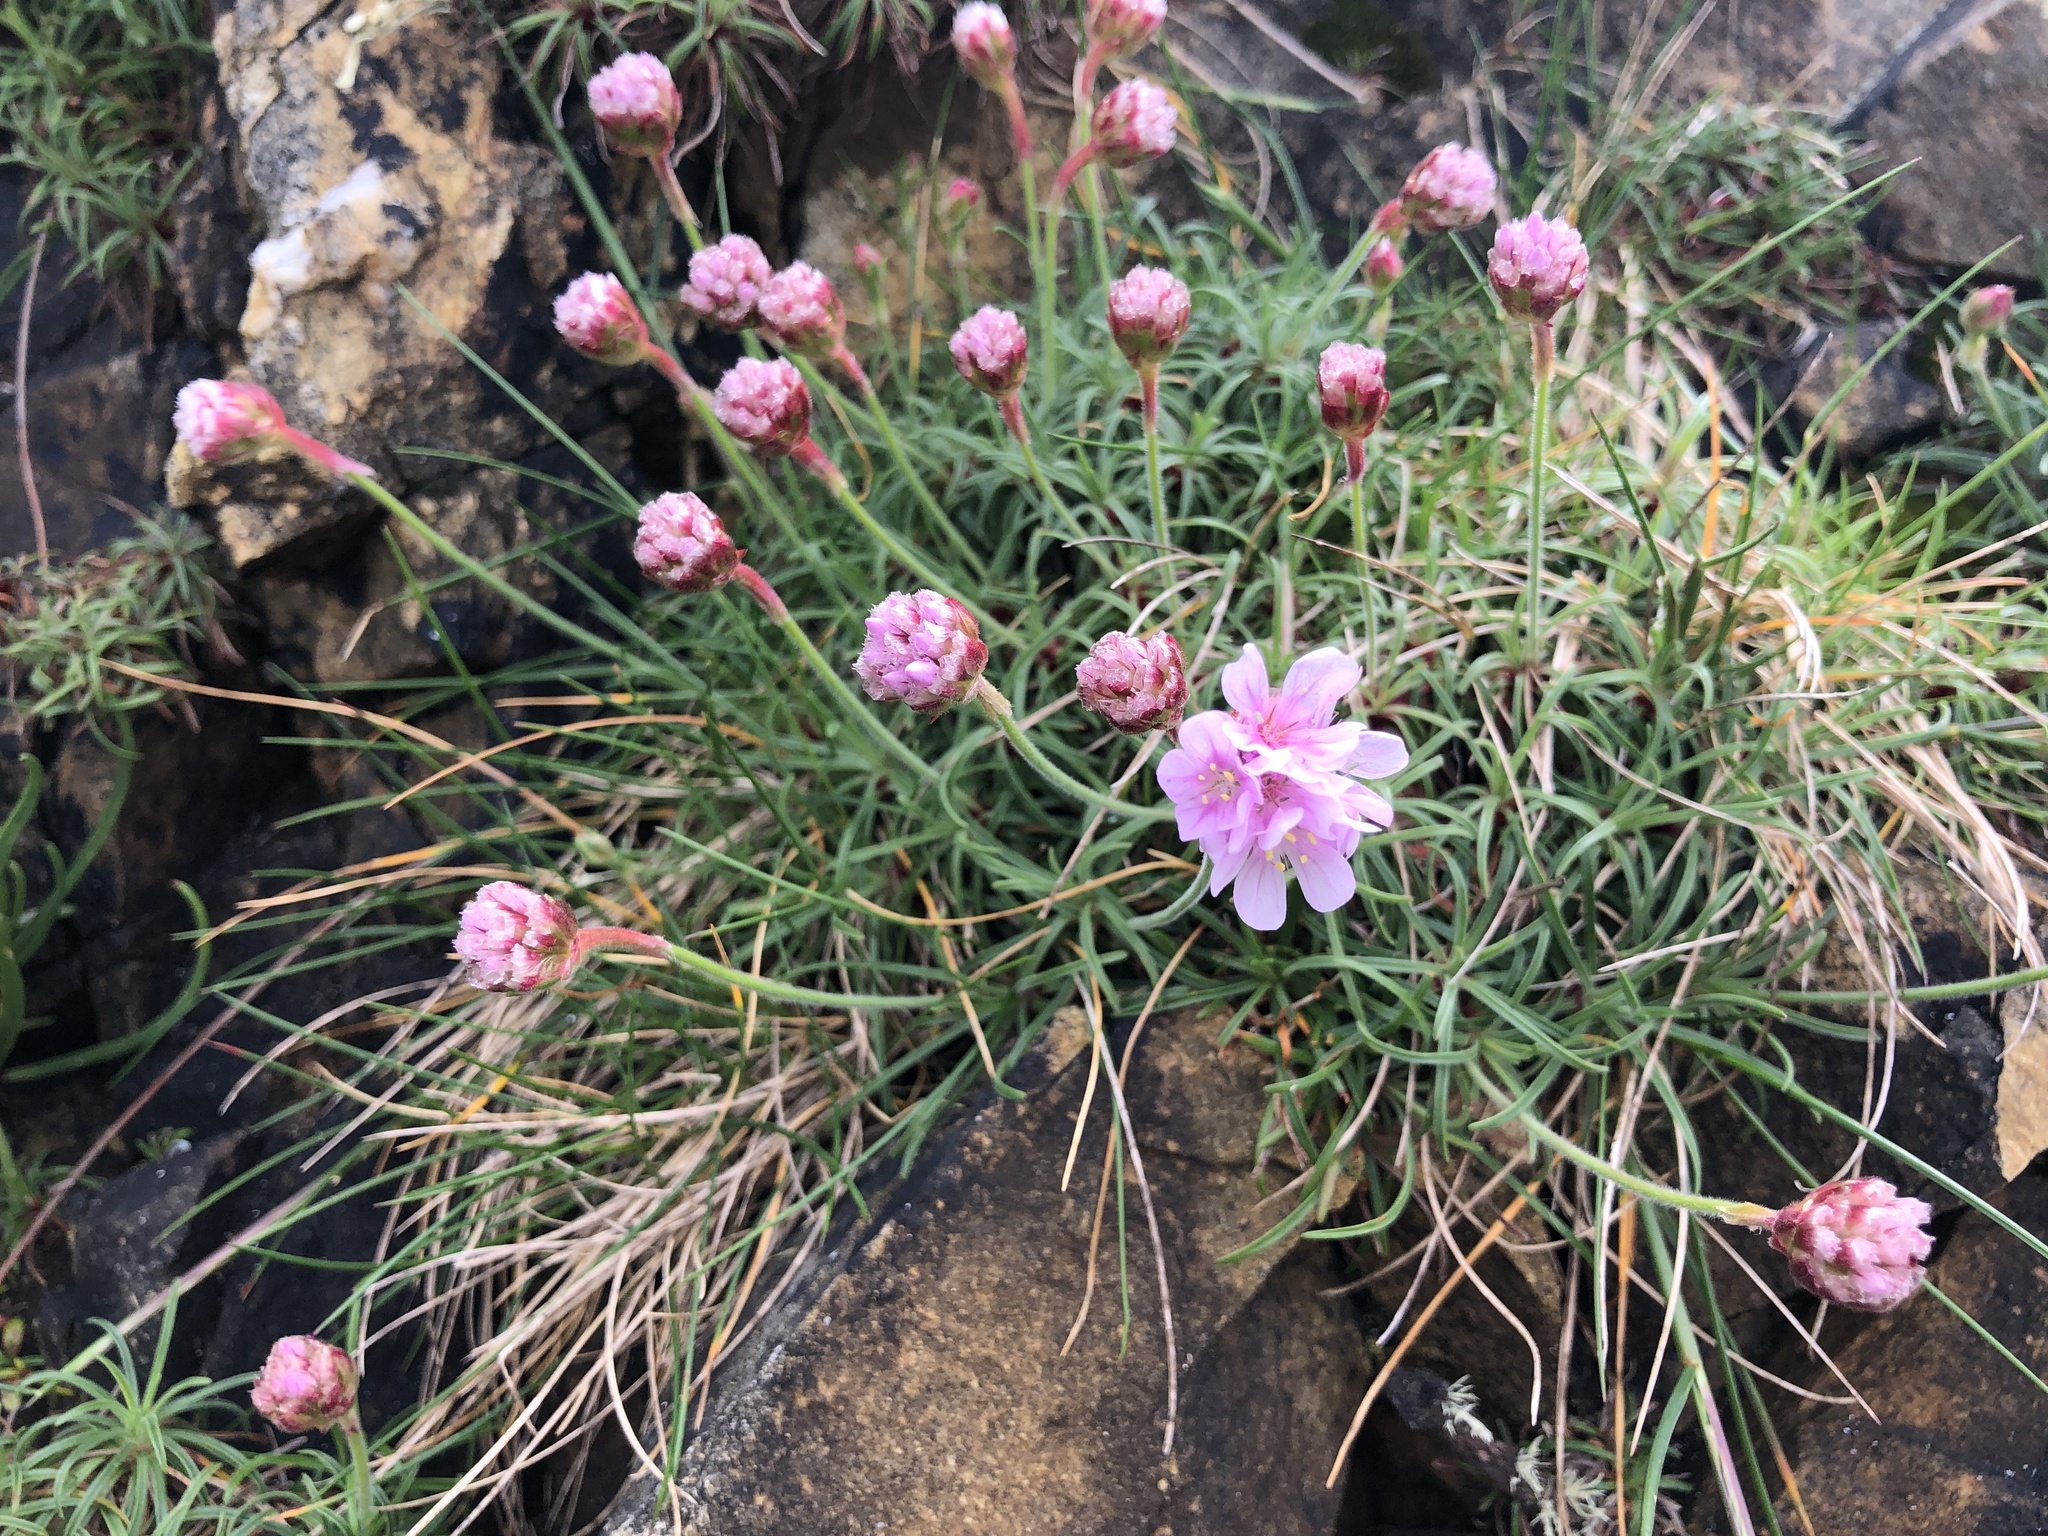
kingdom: Plantae
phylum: Tracheophyta
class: Magnoliopsida
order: Caryophyllales
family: Plumbaginaceae
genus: Armeria
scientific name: Armeria maritima
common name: Thrift
